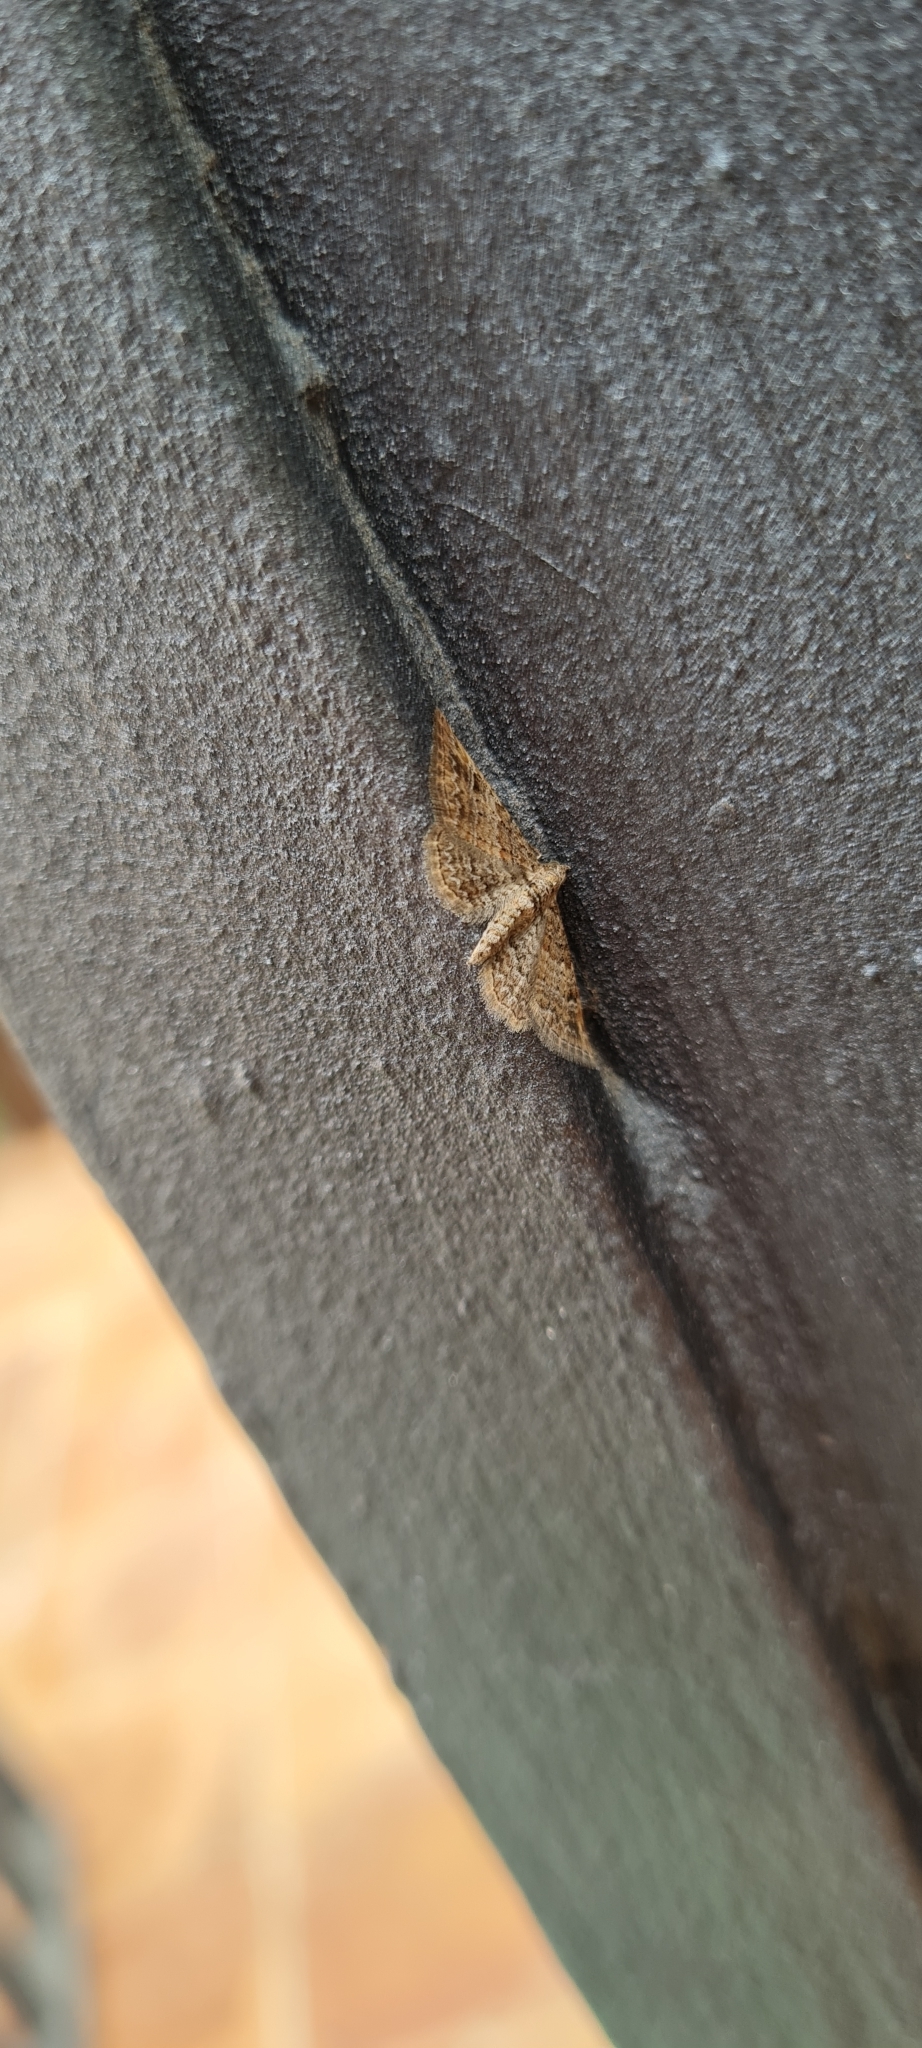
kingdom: Animalia
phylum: Arthropoda
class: Insecta
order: Lepidoptera
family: Geometridae
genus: Gymnoscelis
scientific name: Gymnoscelis rufifasciata
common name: Double-striped pug
